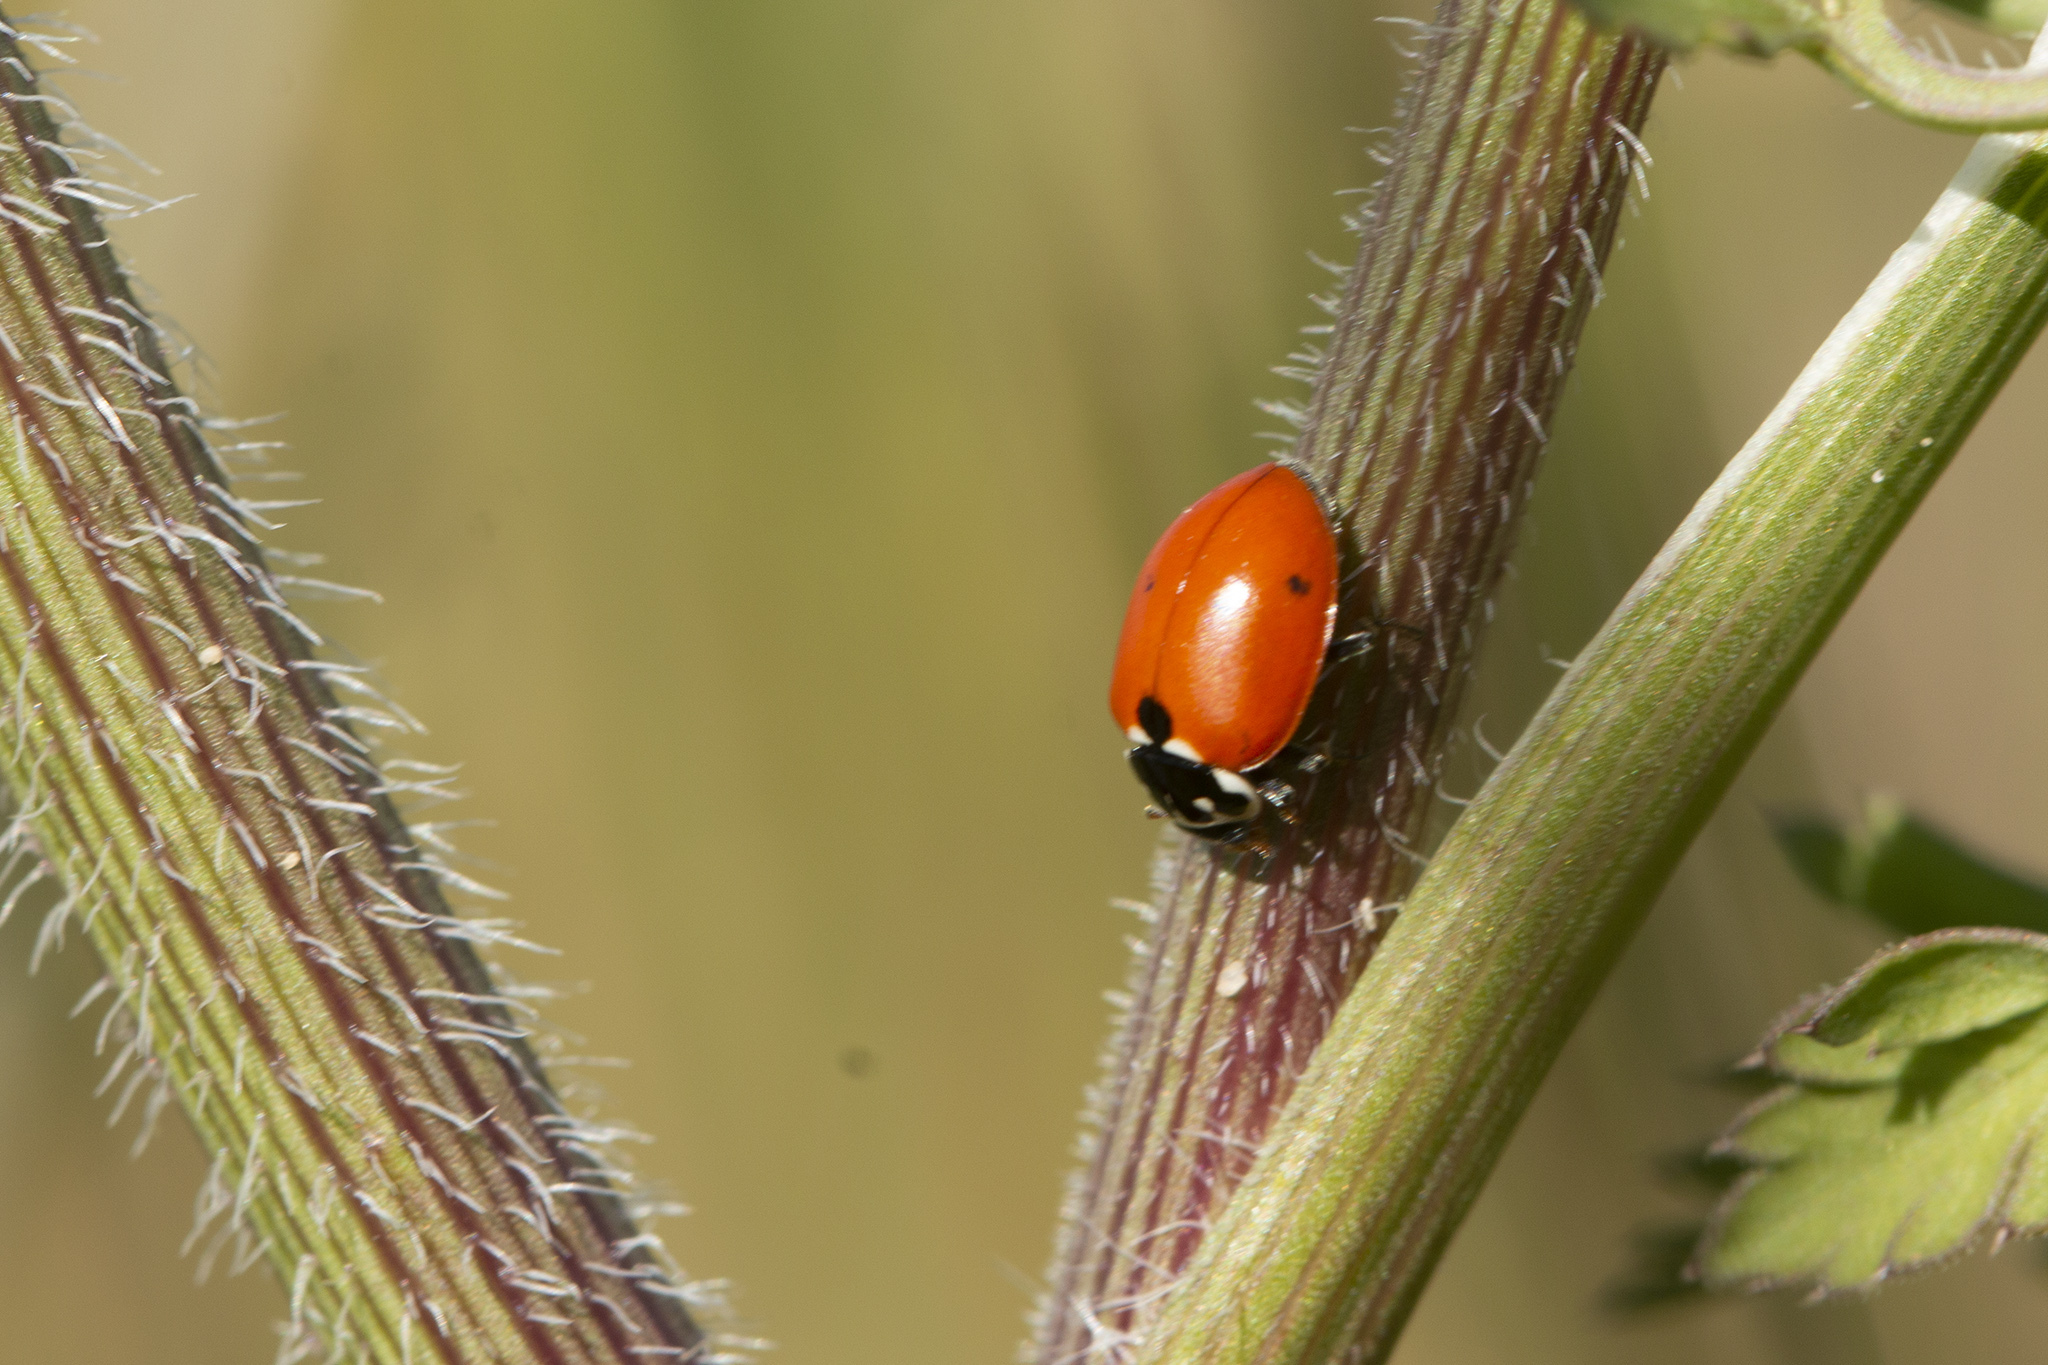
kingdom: Animalia
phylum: Arthropoda
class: Insecta
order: Coleoptera
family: Coccinellidae
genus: Hippodamia
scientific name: Hippodamia variegata
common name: Ladybird beetle
